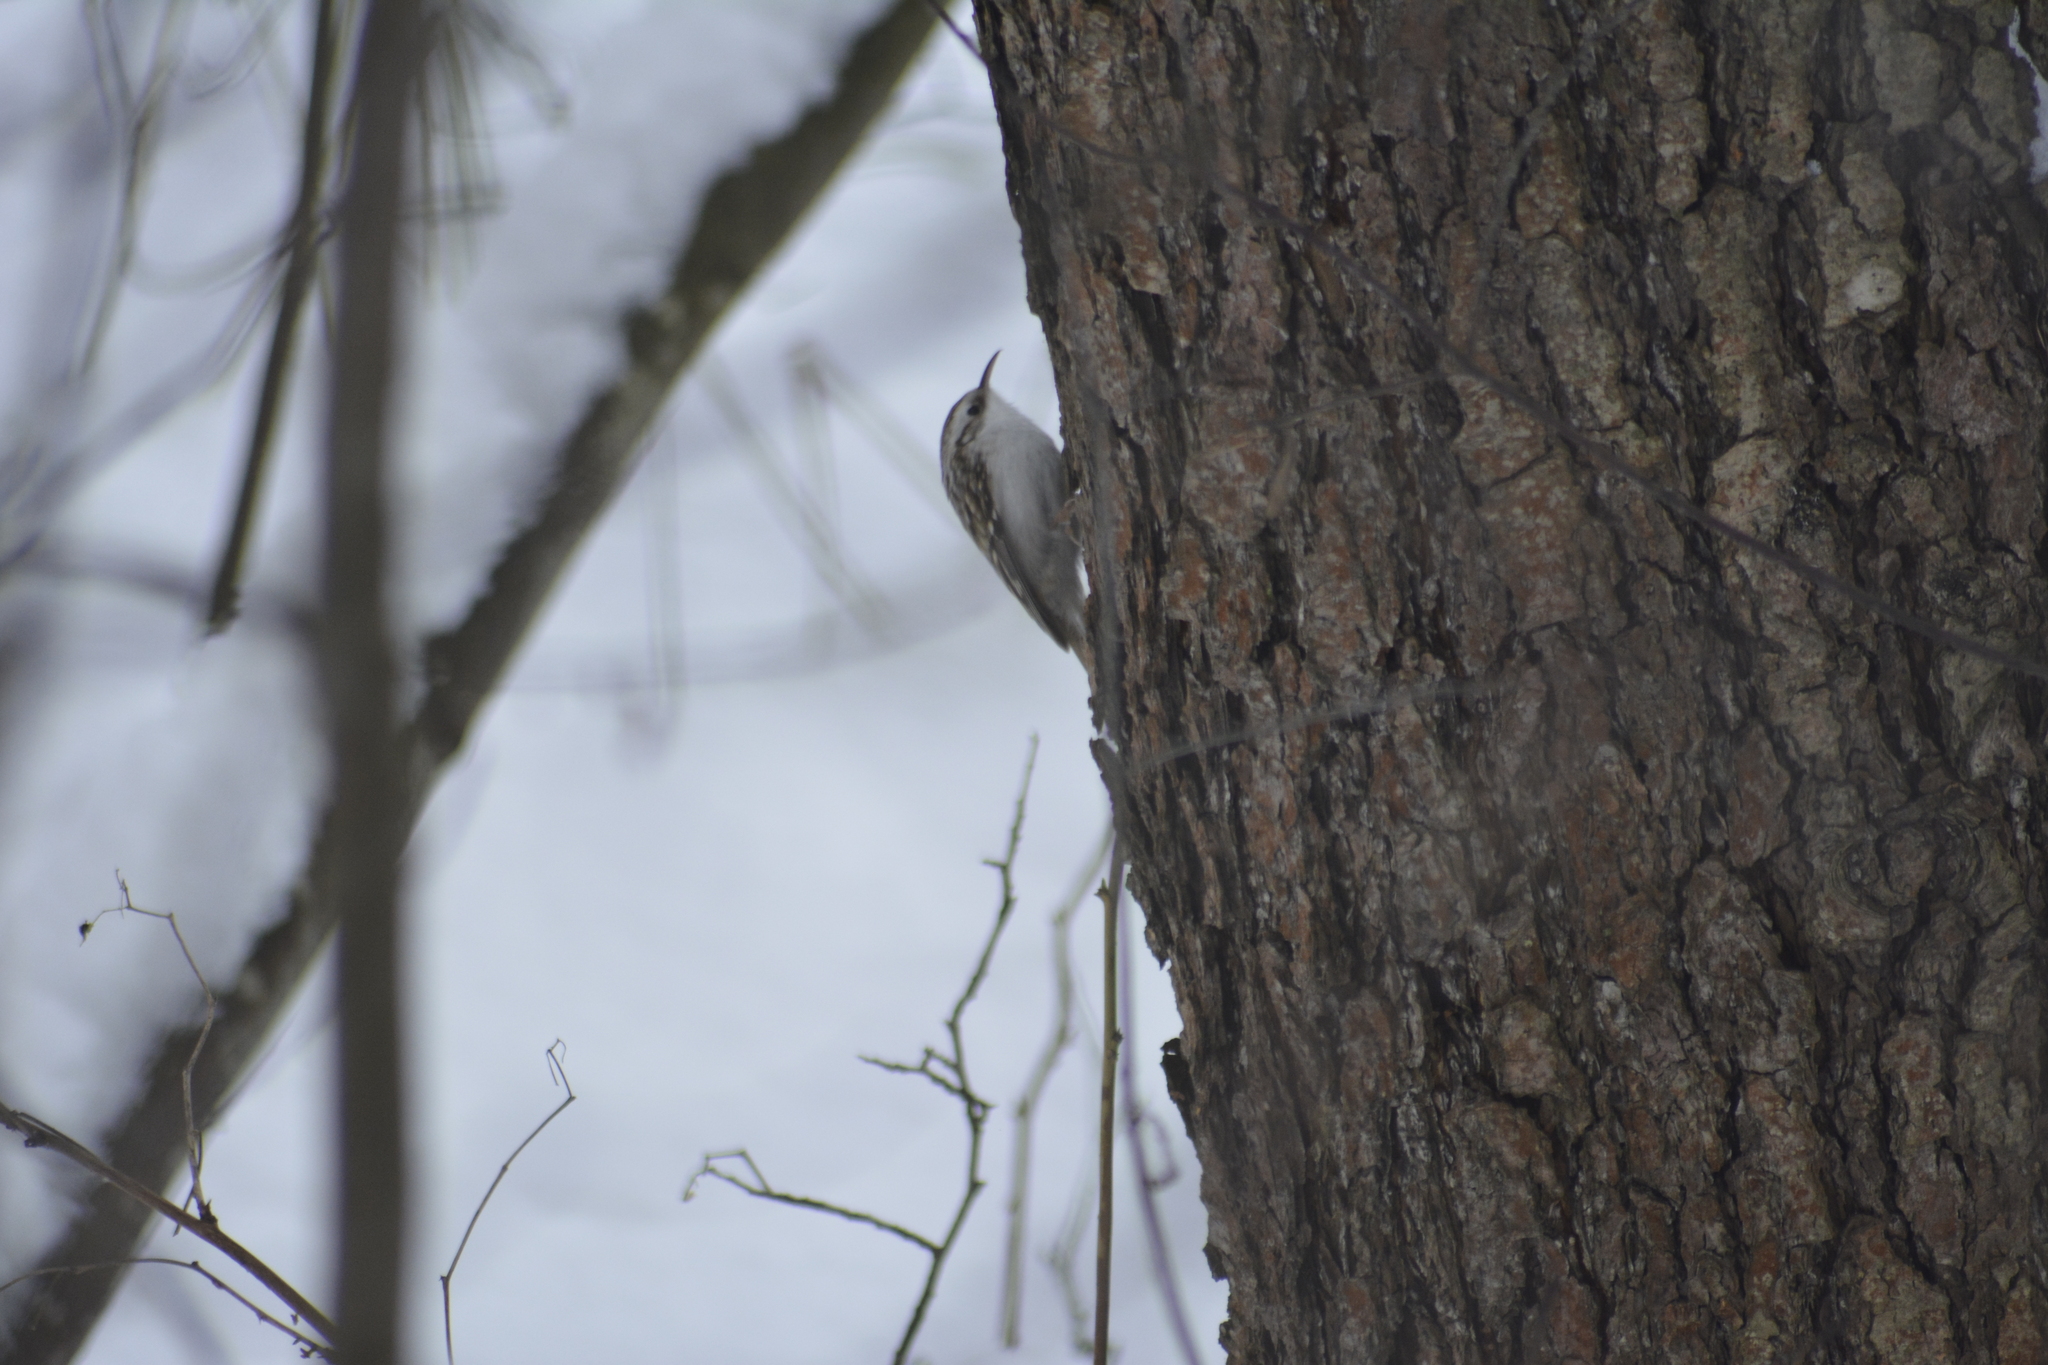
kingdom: Animalia
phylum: Chordata
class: Aves
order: Passeriformes
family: Certhiidae
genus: Certhia
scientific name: Certhia familiaris
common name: Eurasian treecreeper
